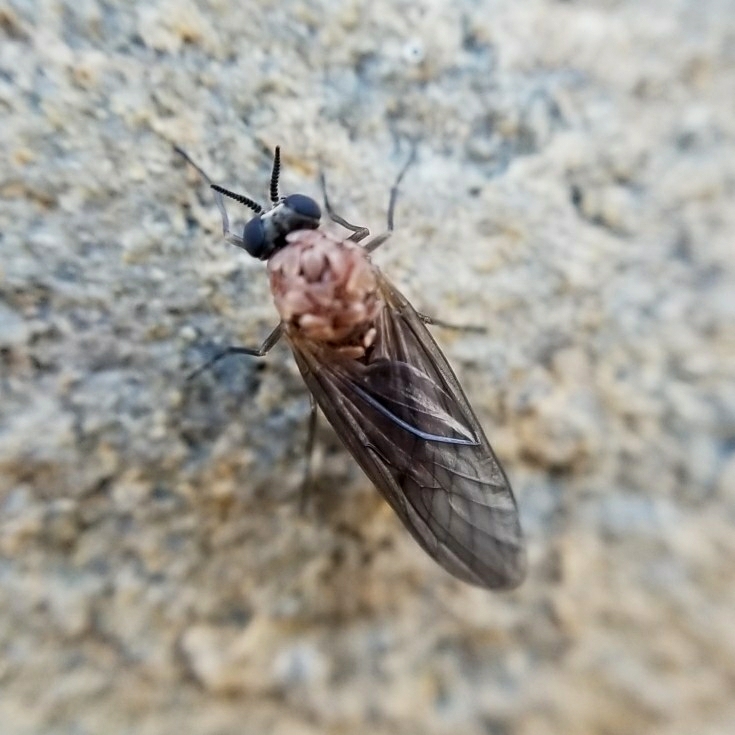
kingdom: Animalia
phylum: Arthropoda
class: Insecta
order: Diptera
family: Axymyiidae
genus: Axymyia
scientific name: Axymyia furcata
